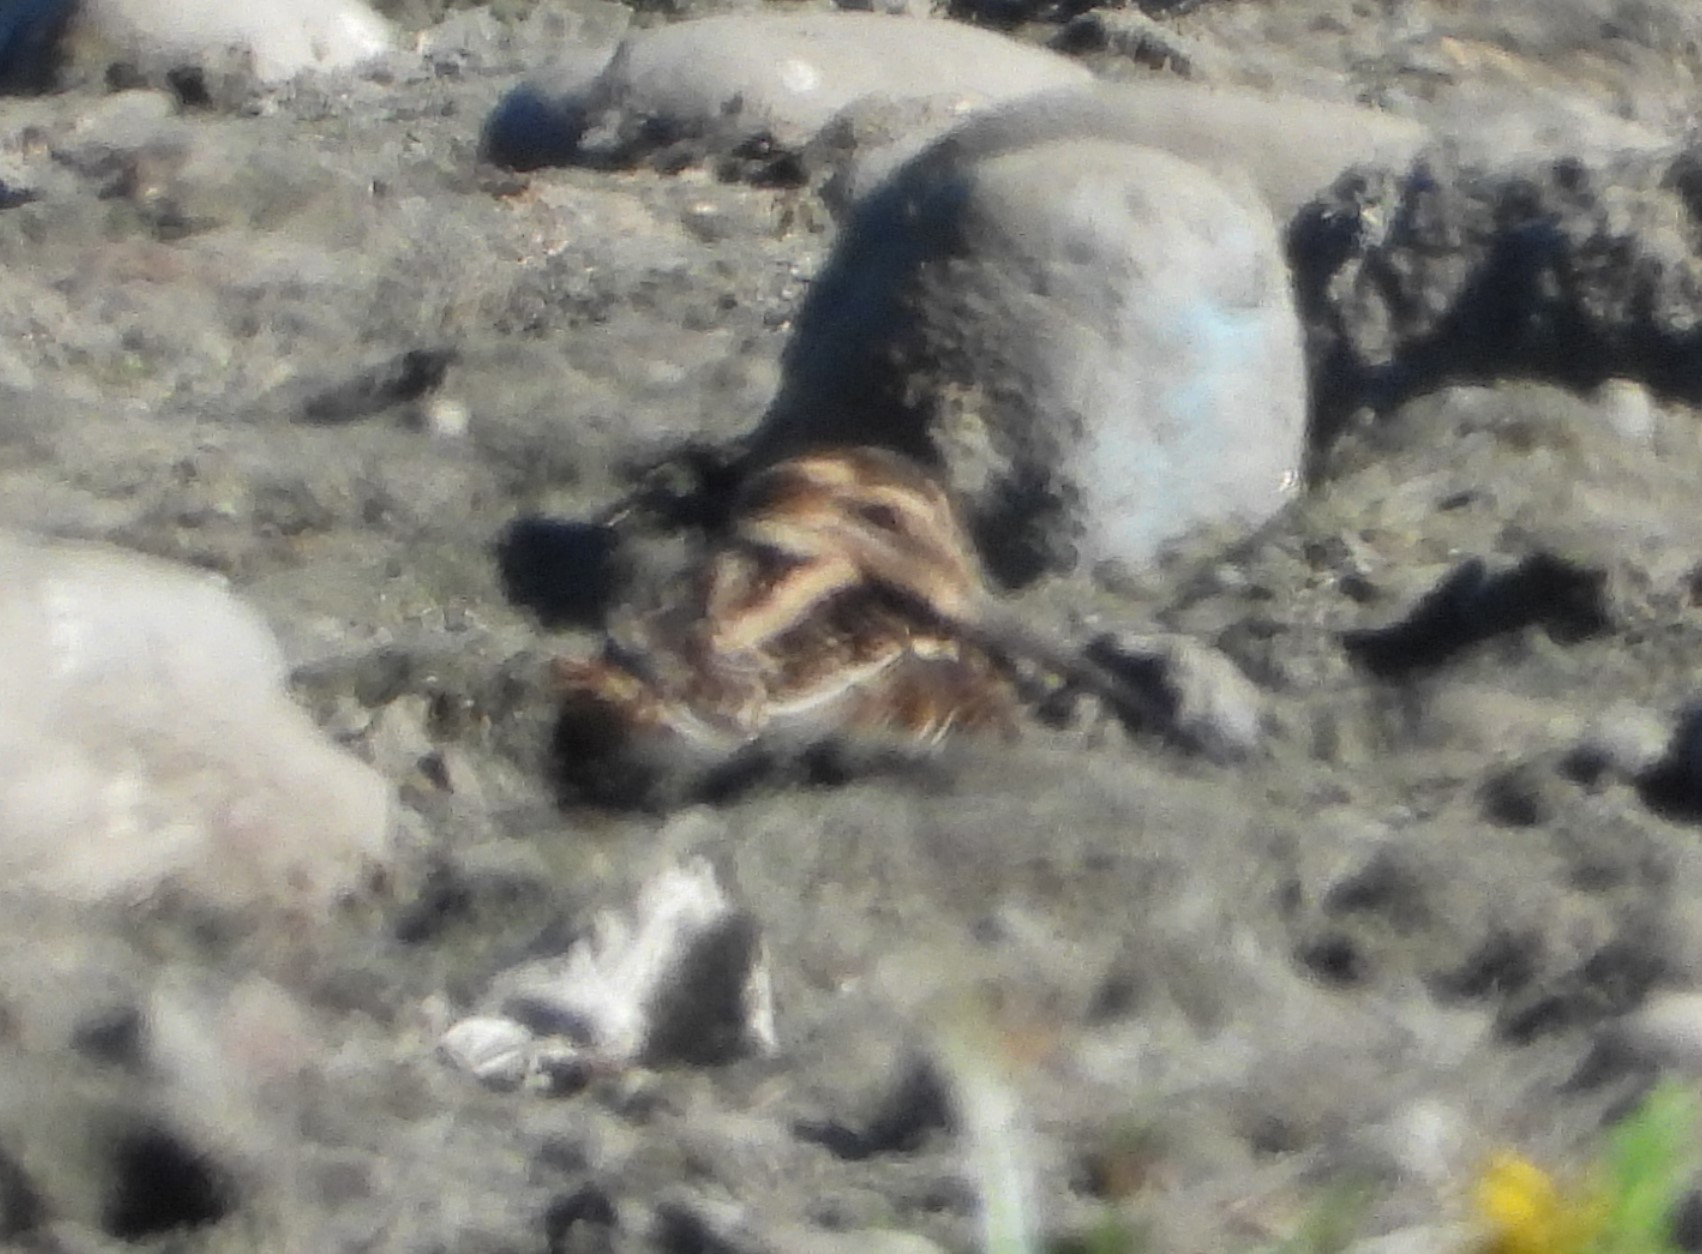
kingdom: Animalia
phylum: Chordata
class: Aves
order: Charadriiformes
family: Scolopacidae
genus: Gallinago
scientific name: Gallinago delicata
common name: Wilson's snipe
